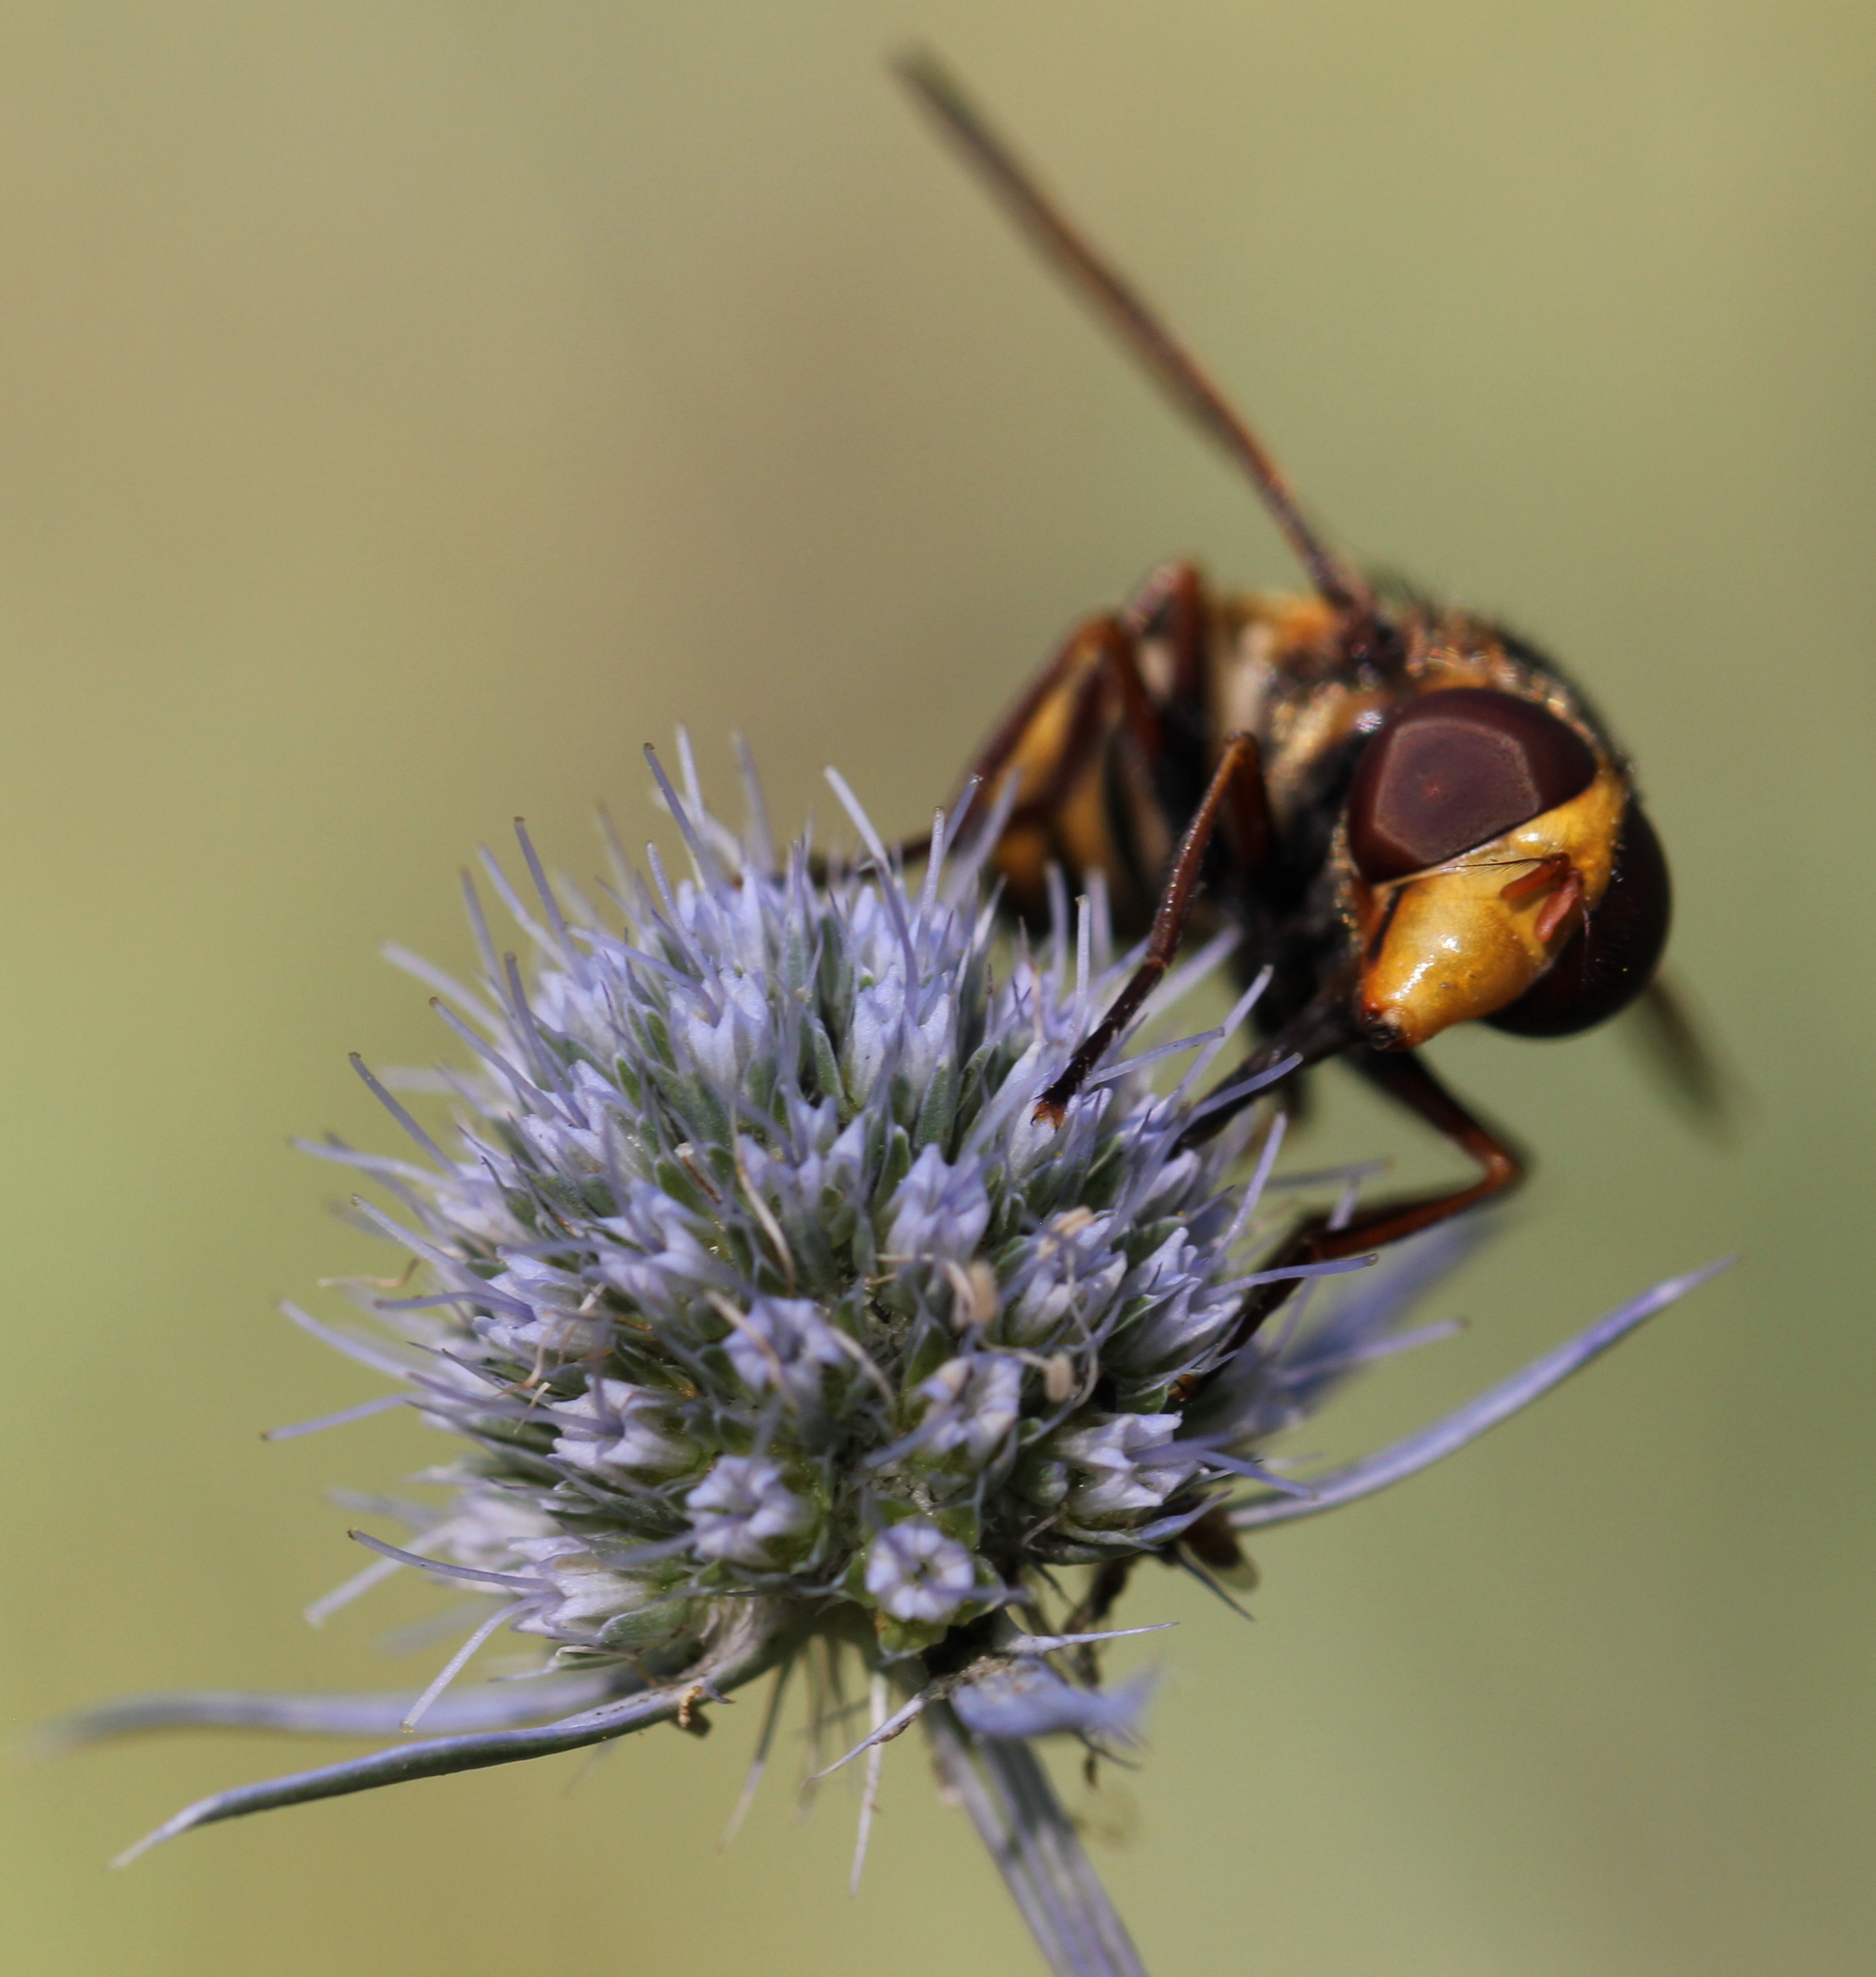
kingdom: Animalia
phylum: Arthropoda
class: Insecta
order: Diptera
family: Syrphidae
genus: Volucella
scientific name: Volucella inanis
